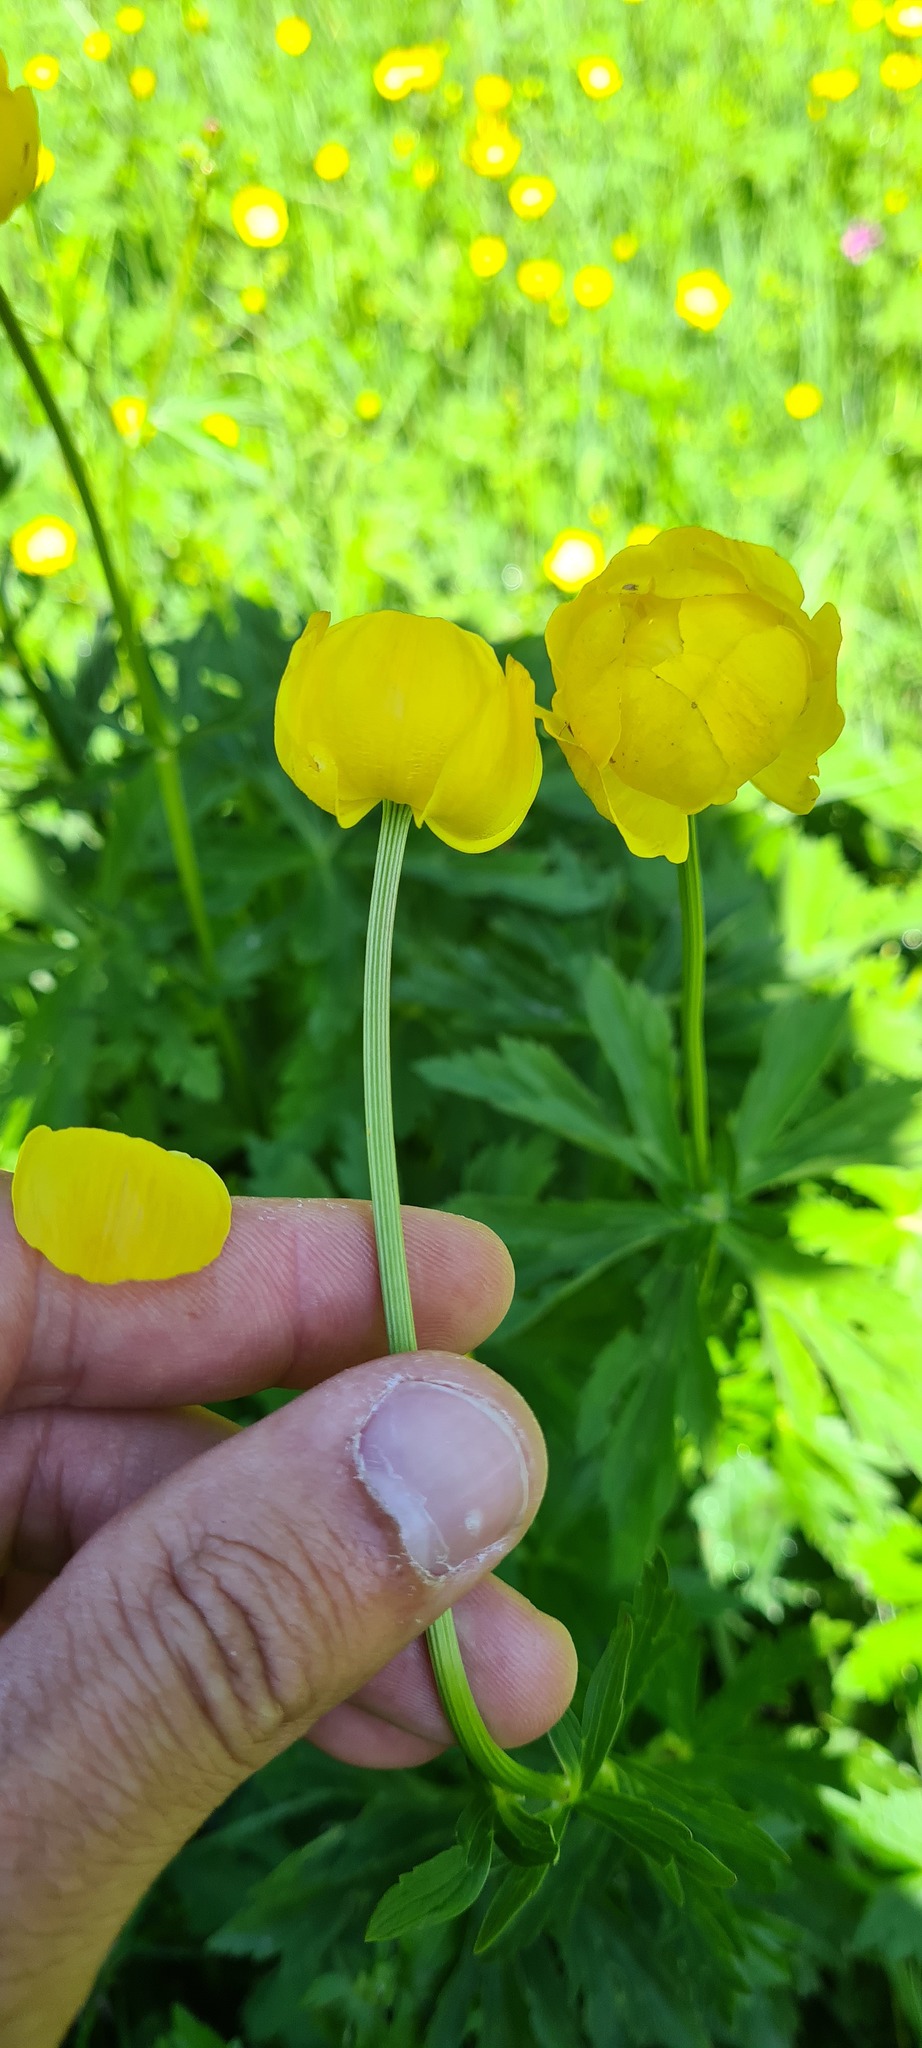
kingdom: Plantae
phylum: Tracheophyta
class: Magnoliopsida
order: Ranunculales
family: Ranunculaceae
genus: Trollius
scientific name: Trollius europaeus
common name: European globeflower
